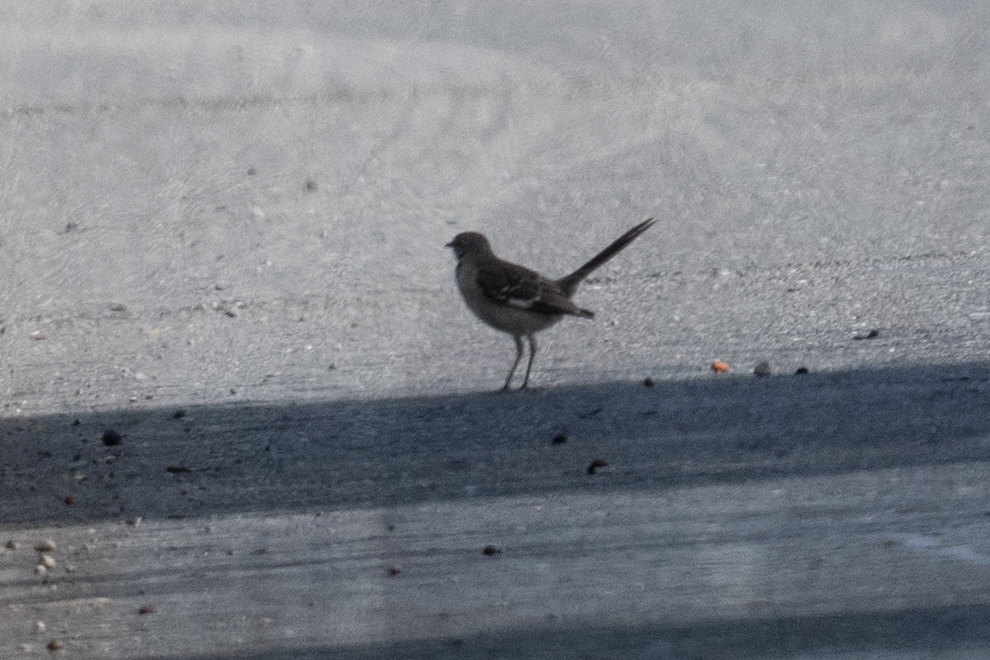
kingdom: Animalia
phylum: Chordata
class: Aves
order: Passeriformes
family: Mimidae
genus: Mimus
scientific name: Mimus polyglottos
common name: Northern mockingbird
